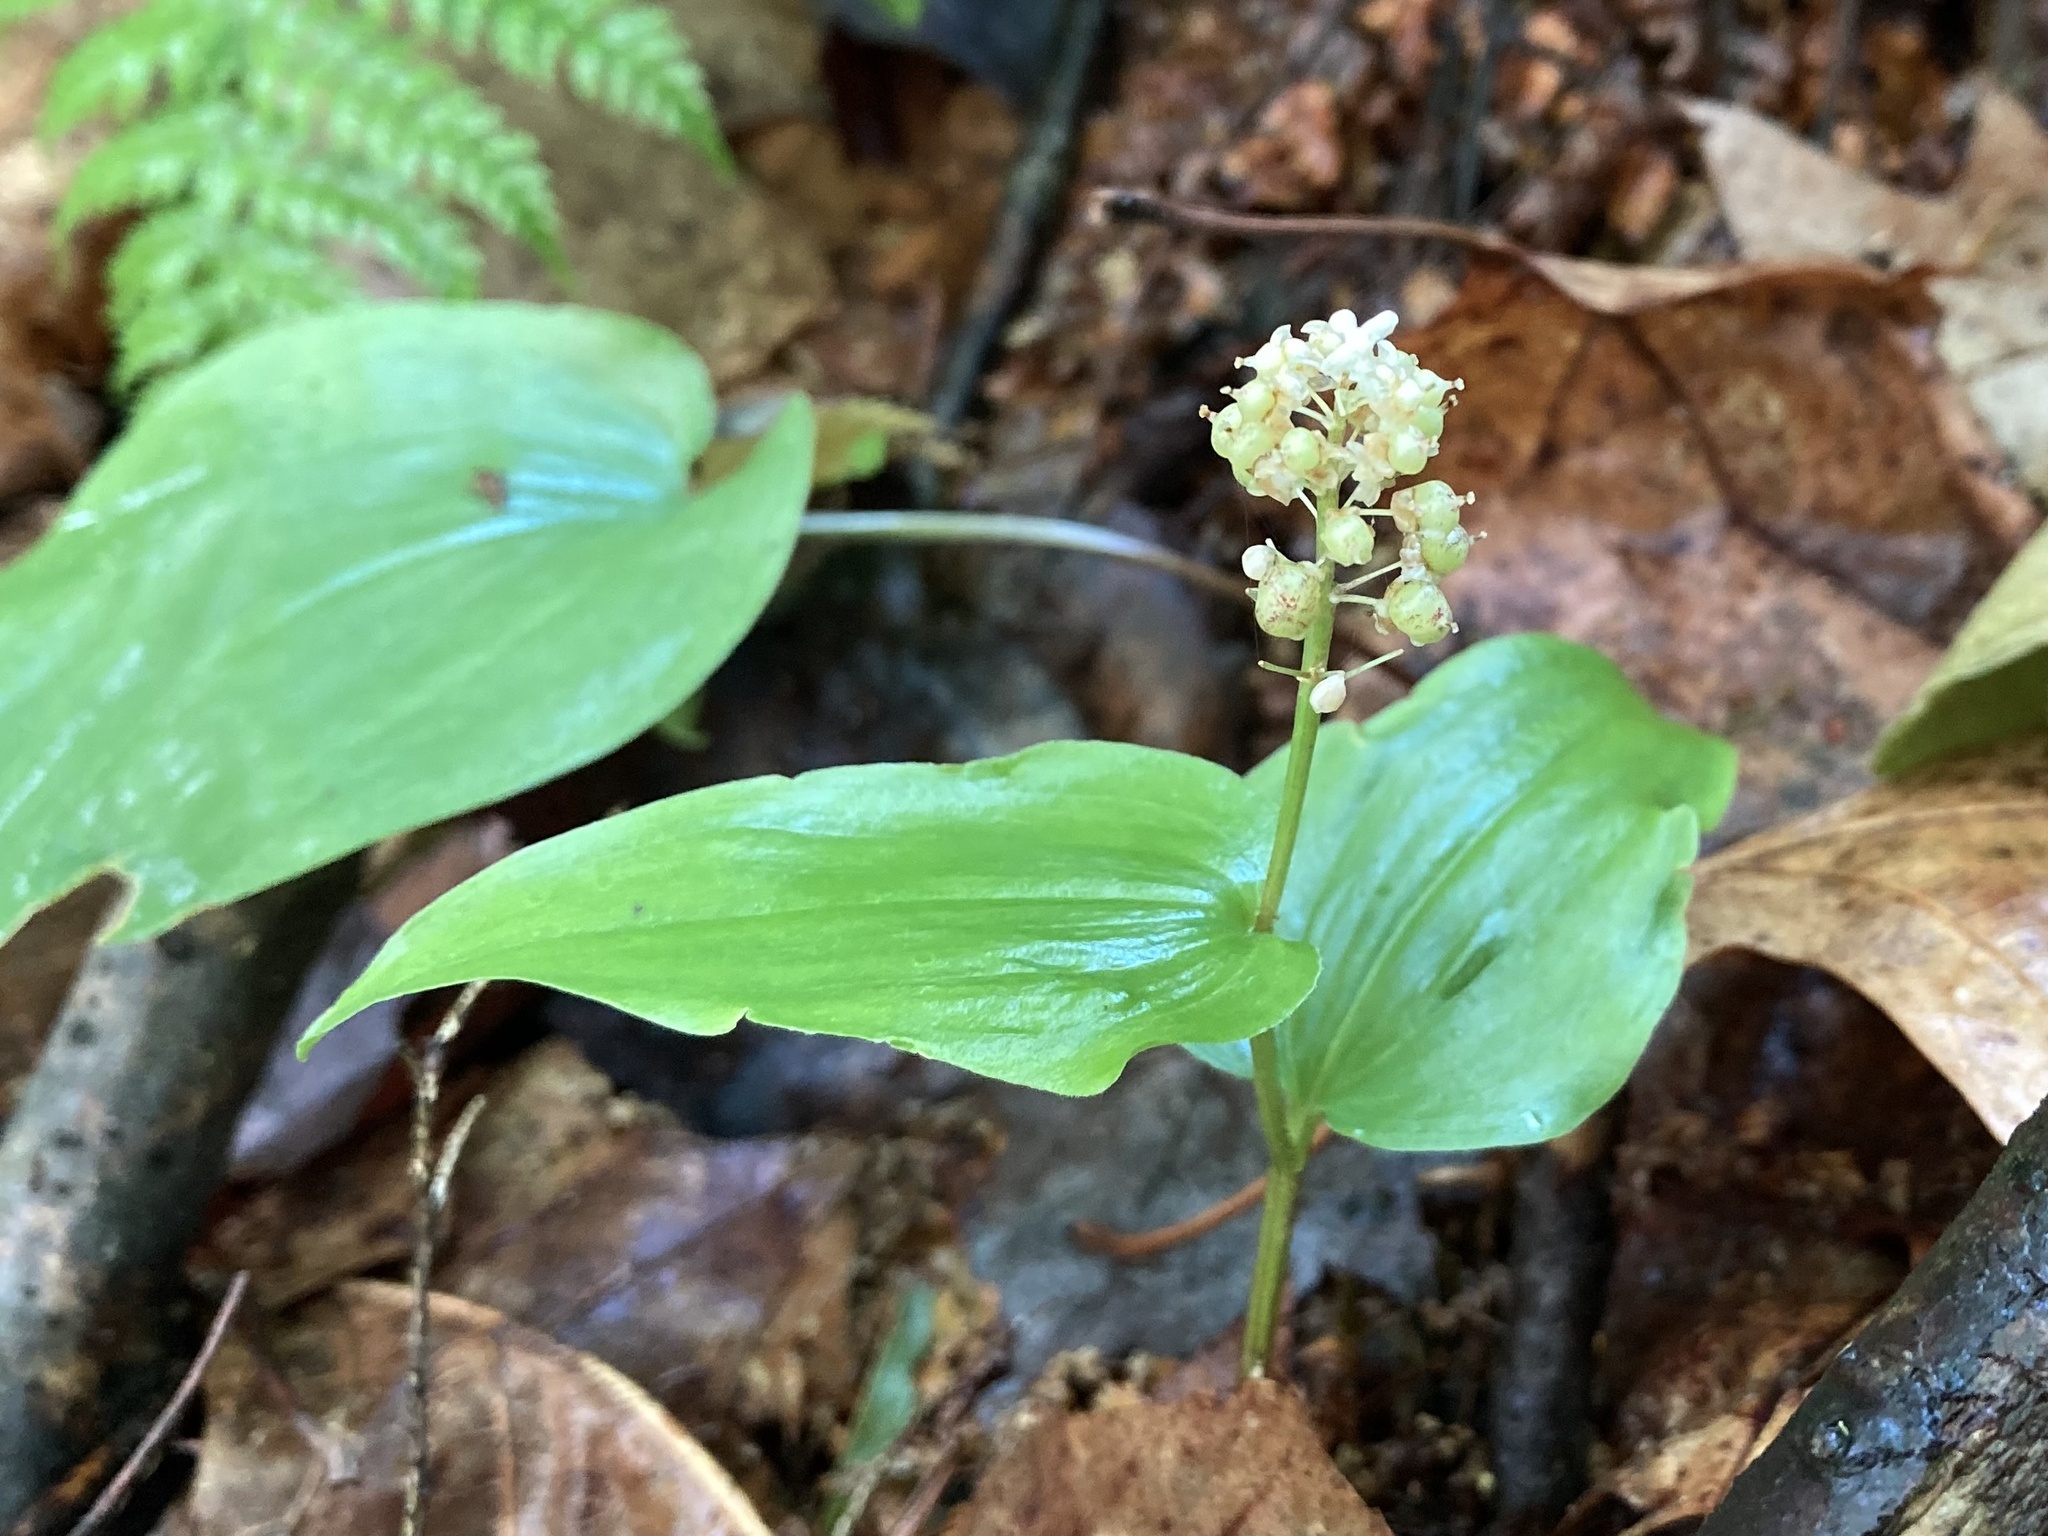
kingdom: Plantae
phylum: Tracheophyta
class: Liliopsida
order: Asparagales
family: Asparagaceae
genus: Maianthemum
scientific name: Maianthemum canadense
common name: False lily-of-the-valley
